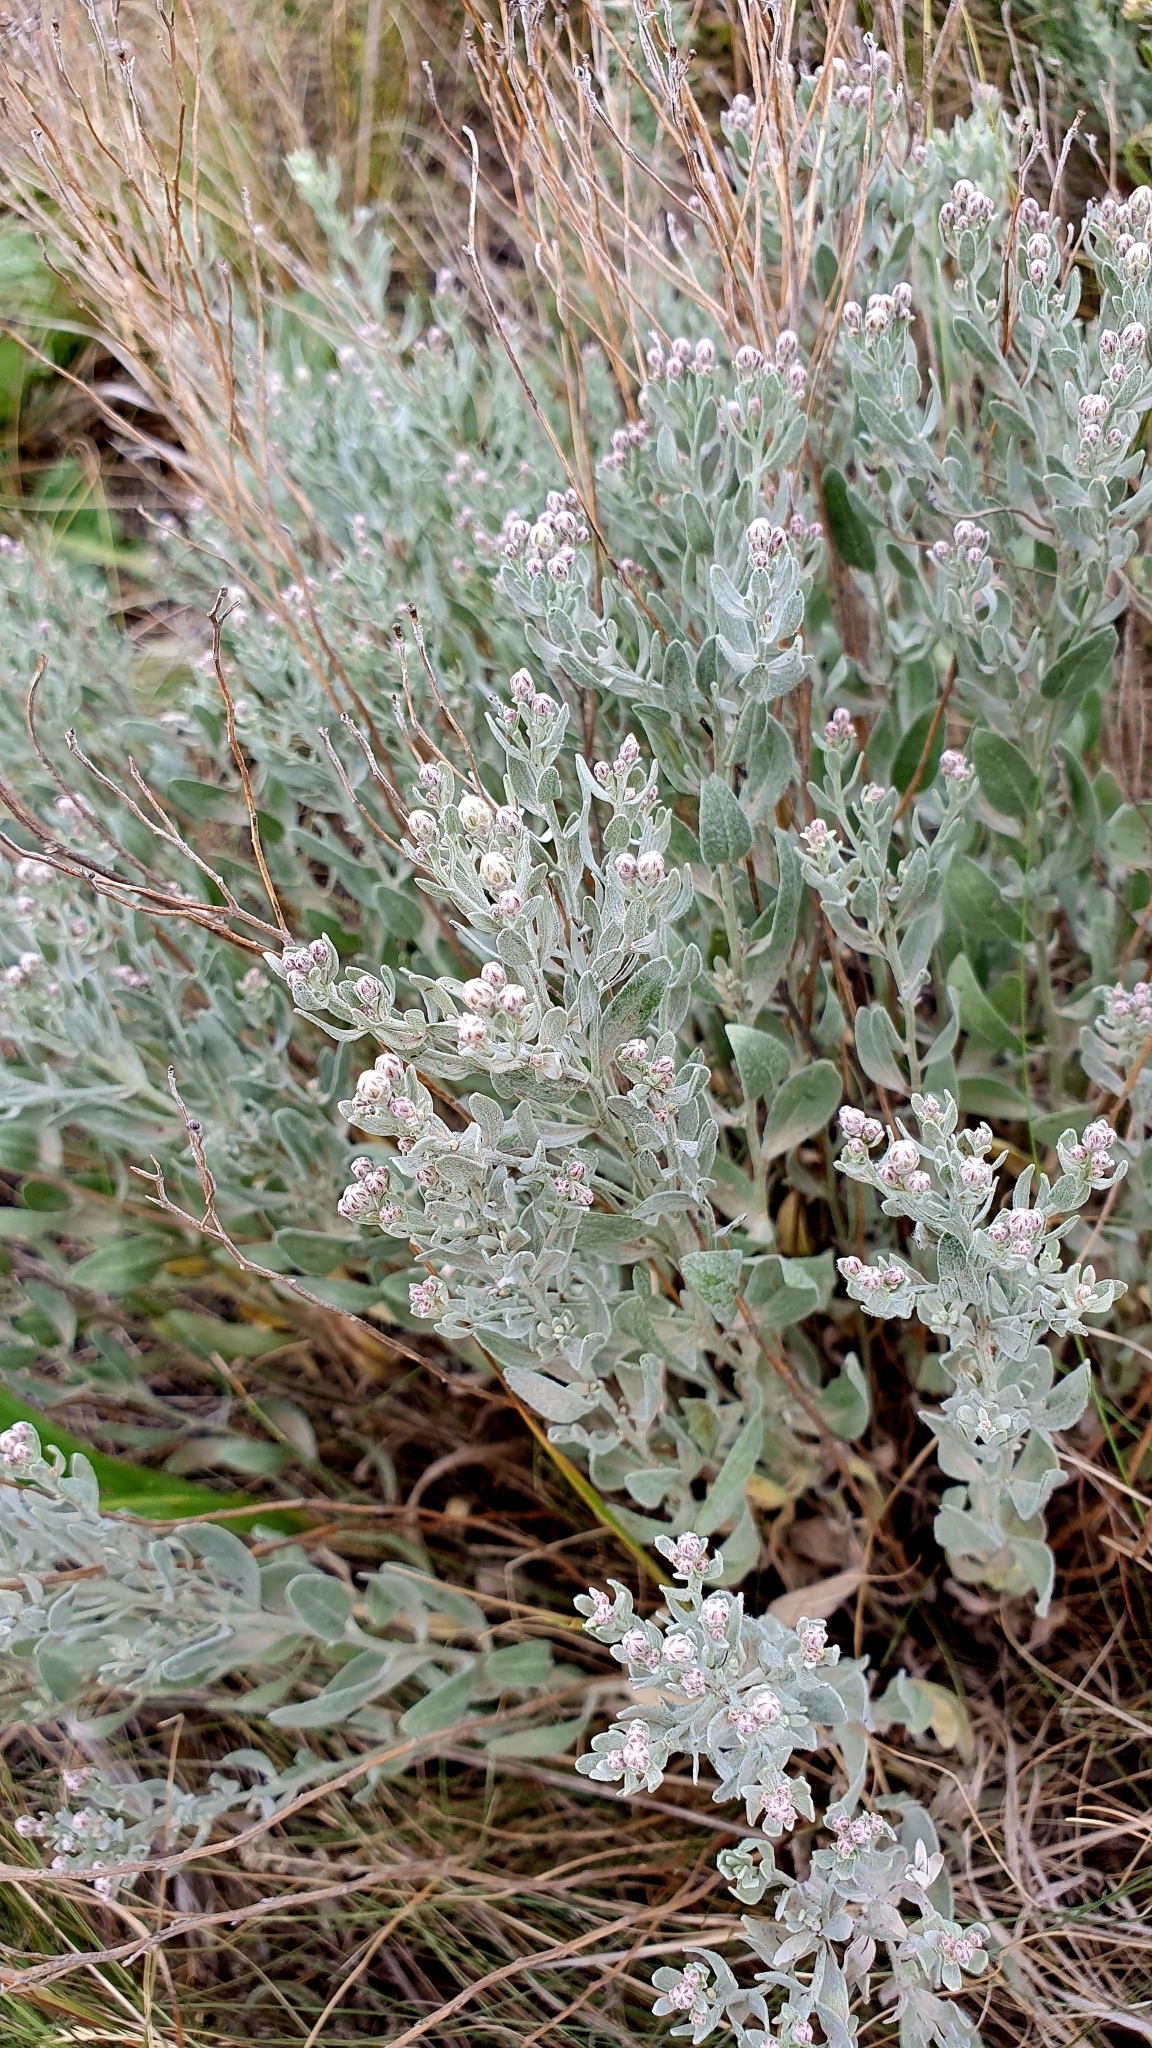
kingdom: Plantae
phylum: Tracheophyta
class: Magnoliopsida
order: Asterales
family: Asteraceae
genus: Galatella
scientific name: Galatella villosa
